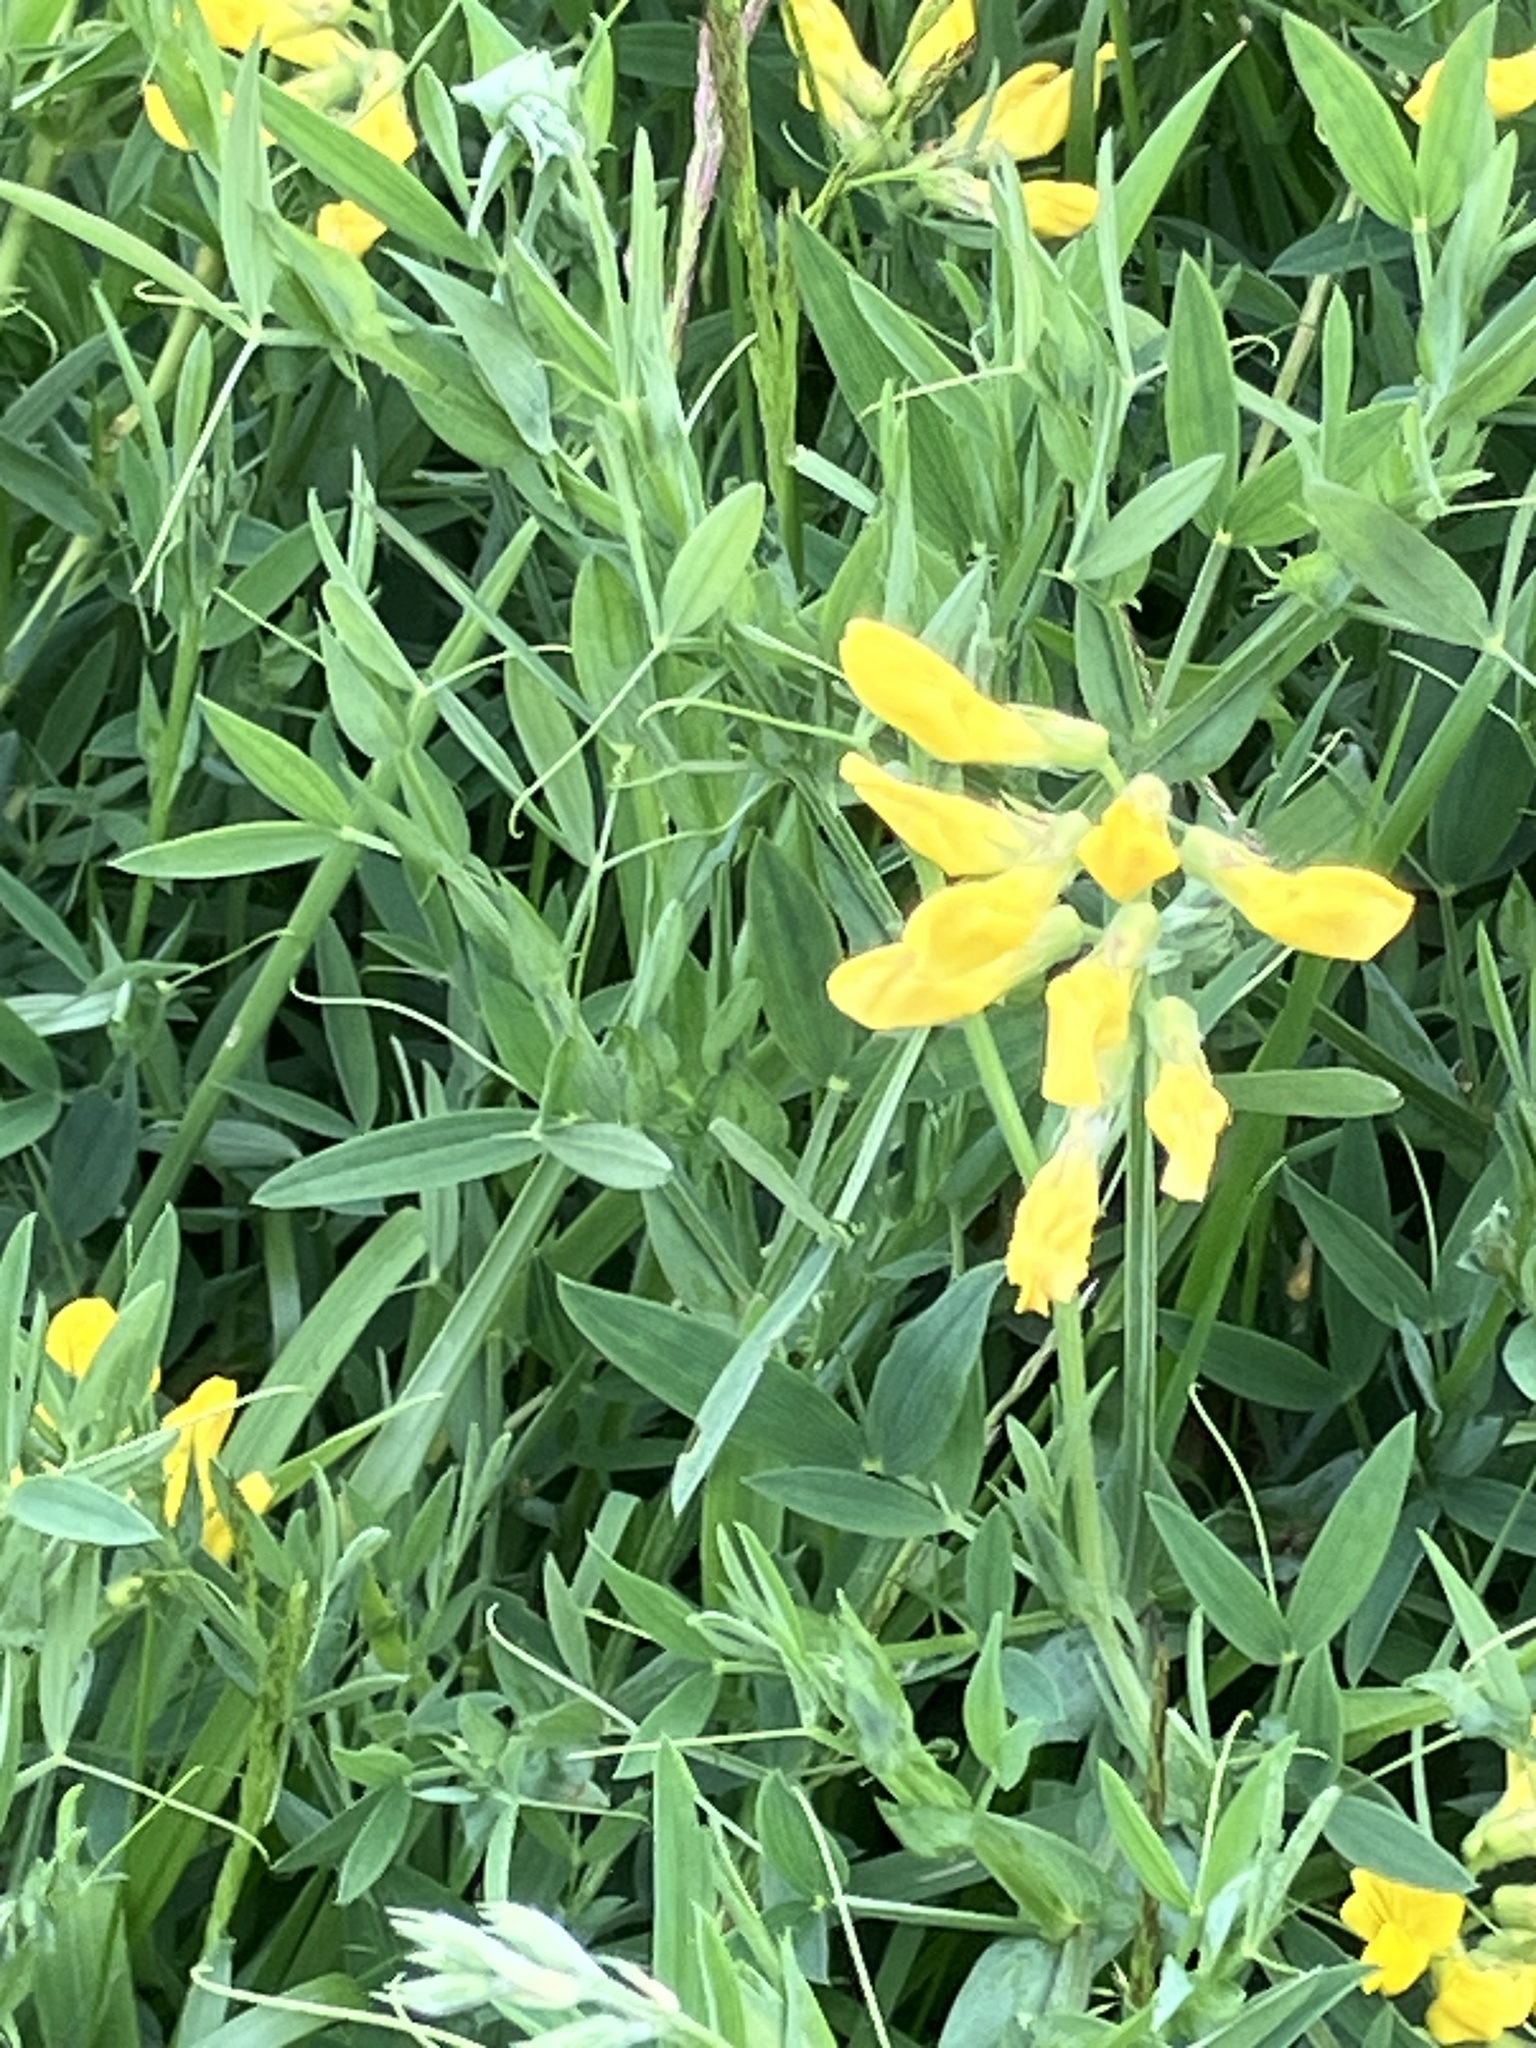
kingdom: Plantae
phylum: Tracheophyta
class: Magnoliopsida
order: Fabales
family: Fabaceae
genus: Lathyrus
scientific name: Lathyrus pratensis
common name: Meadow vetchling
